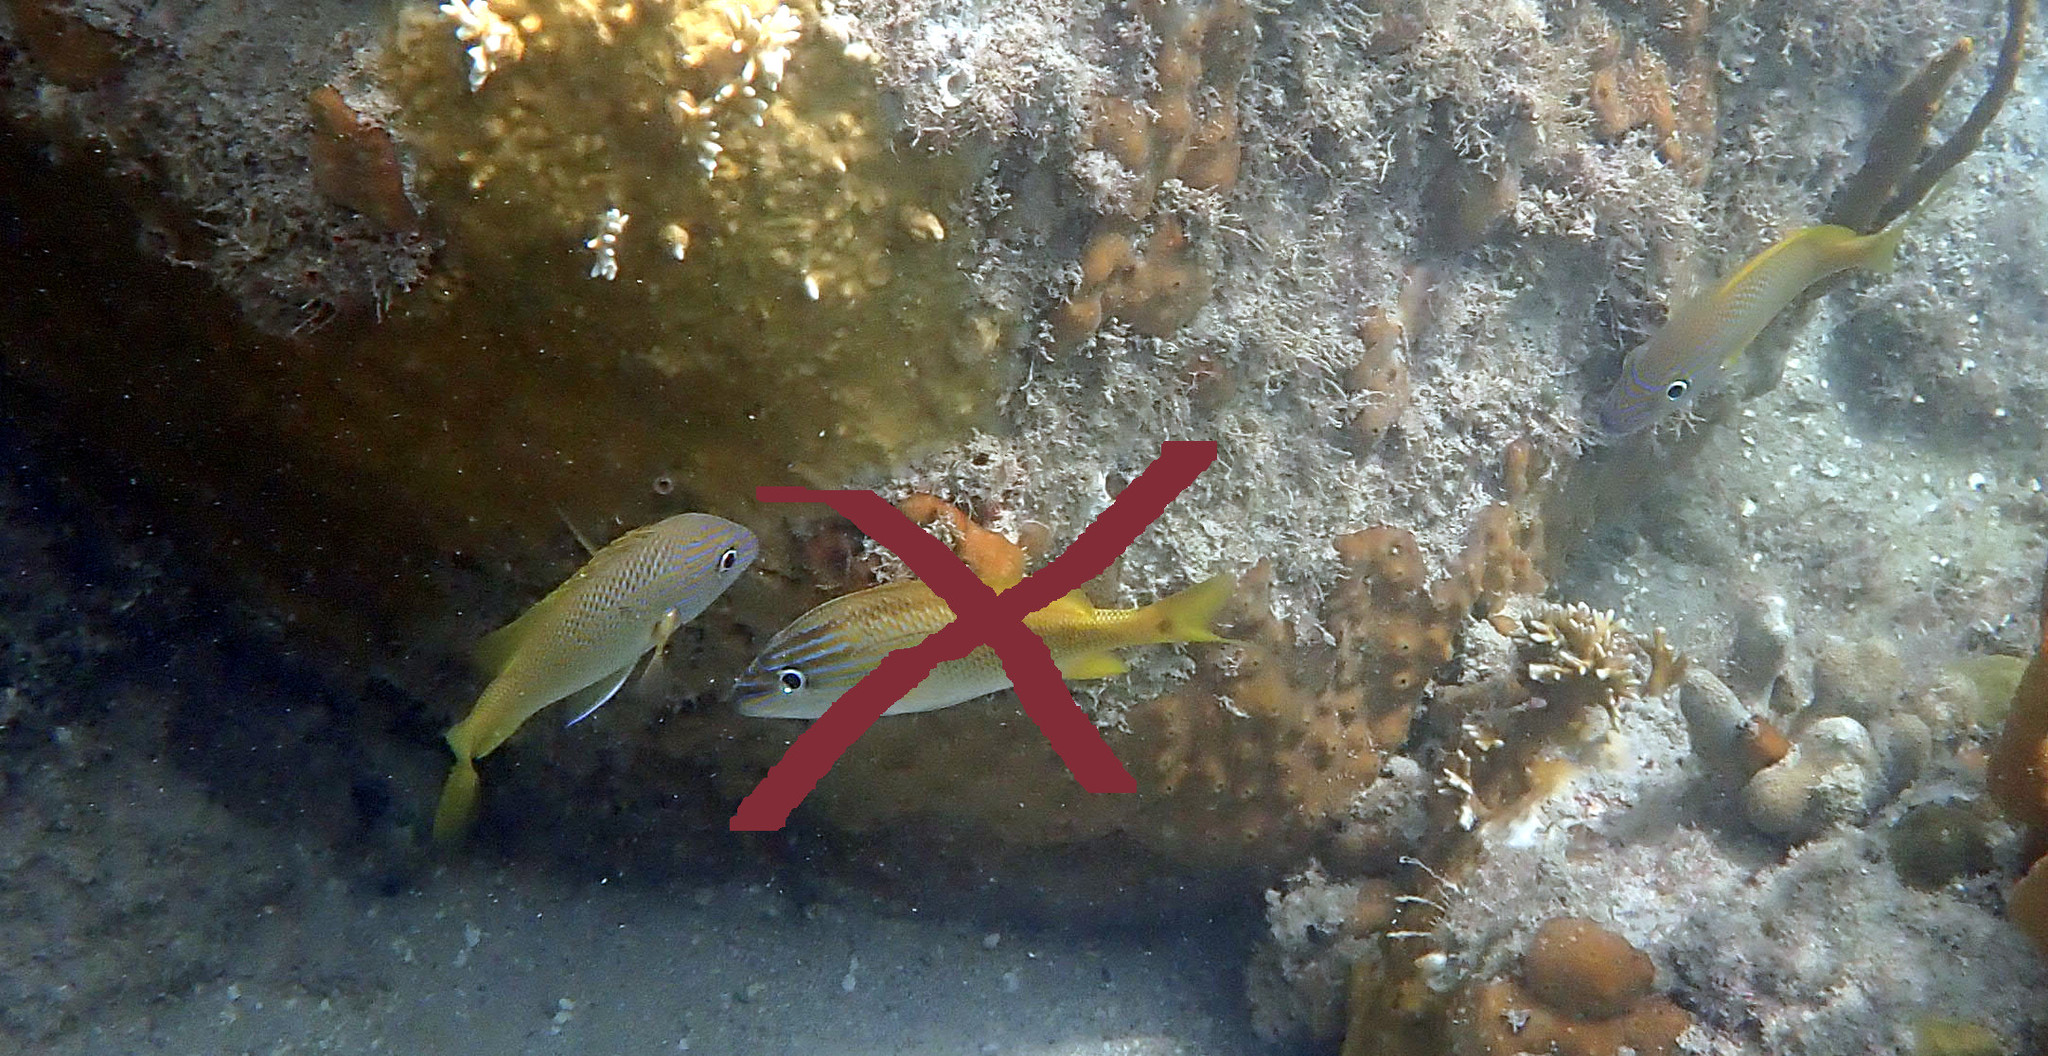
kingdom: Animalia
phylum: Chordata
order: Perciformes
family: Haemulidae
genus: Haemulon
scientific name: Haemulon plumierii
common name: White grunt
